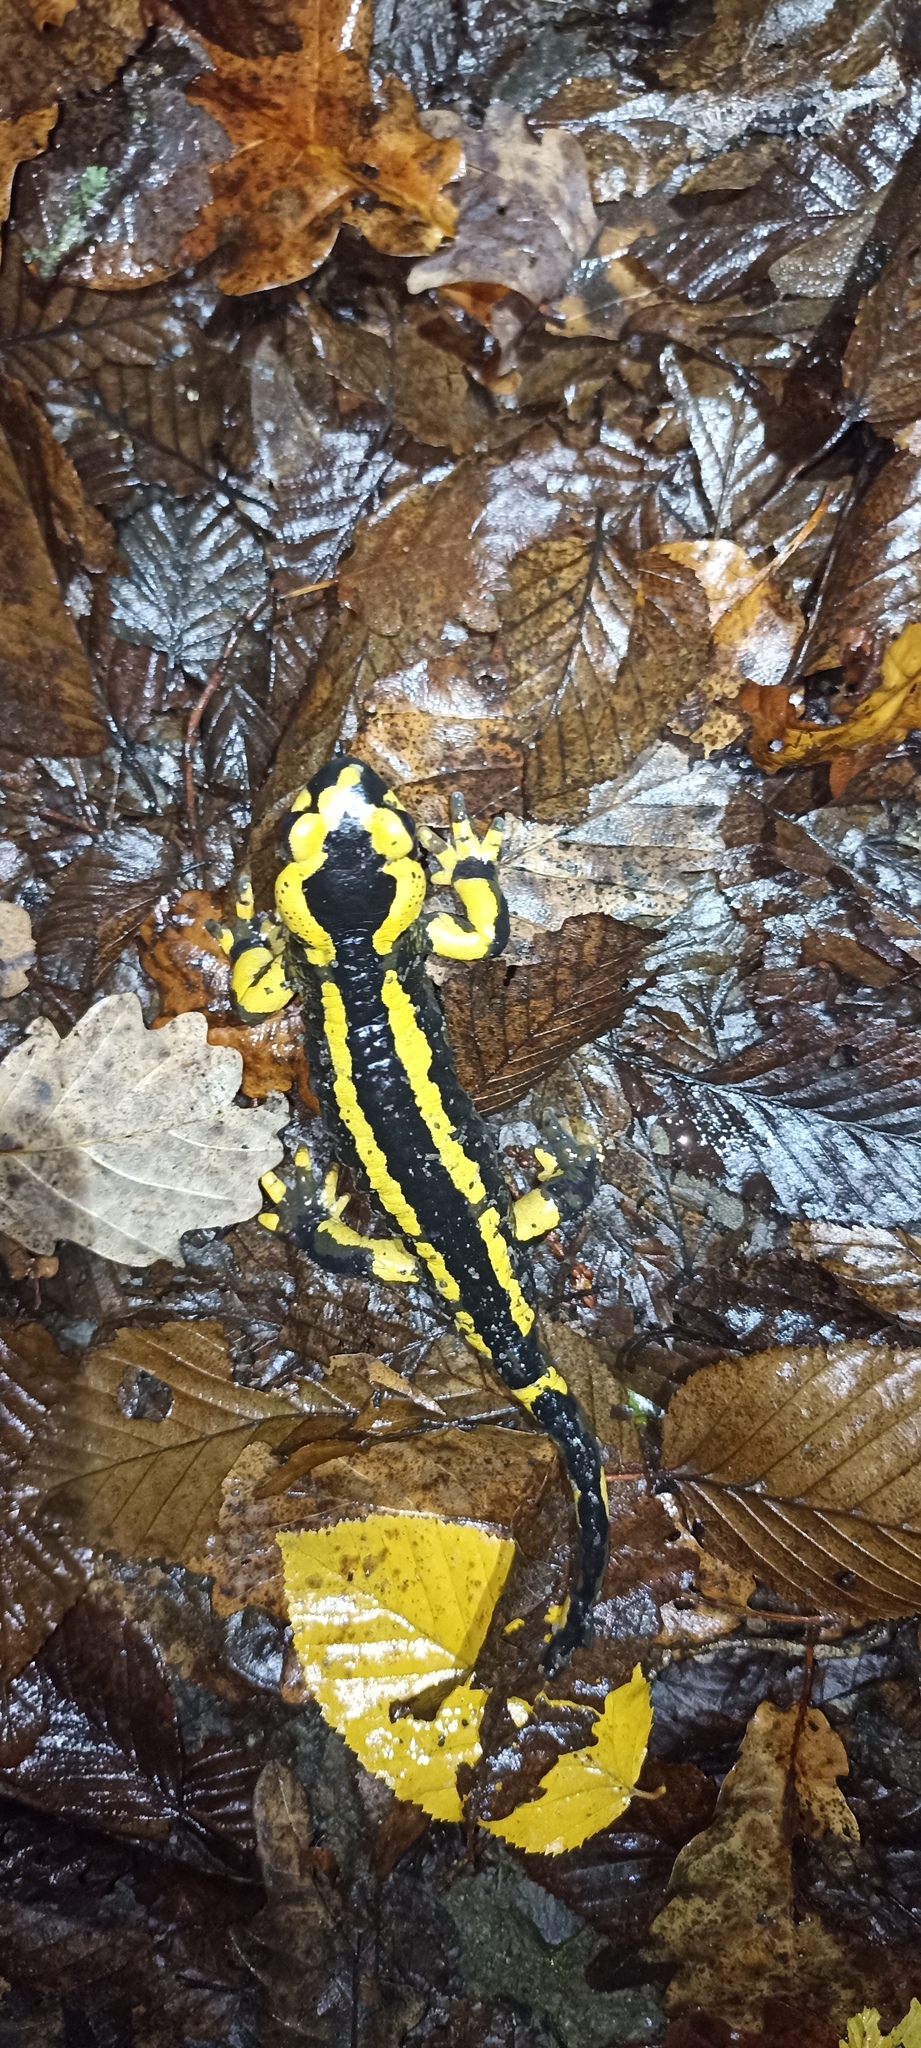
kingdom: Animalia
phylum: Chordata
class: Amphibia
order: Caudata
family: Salamandridae
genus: Salamandra
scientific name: Salamandra salamandra
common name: Fire salamander
